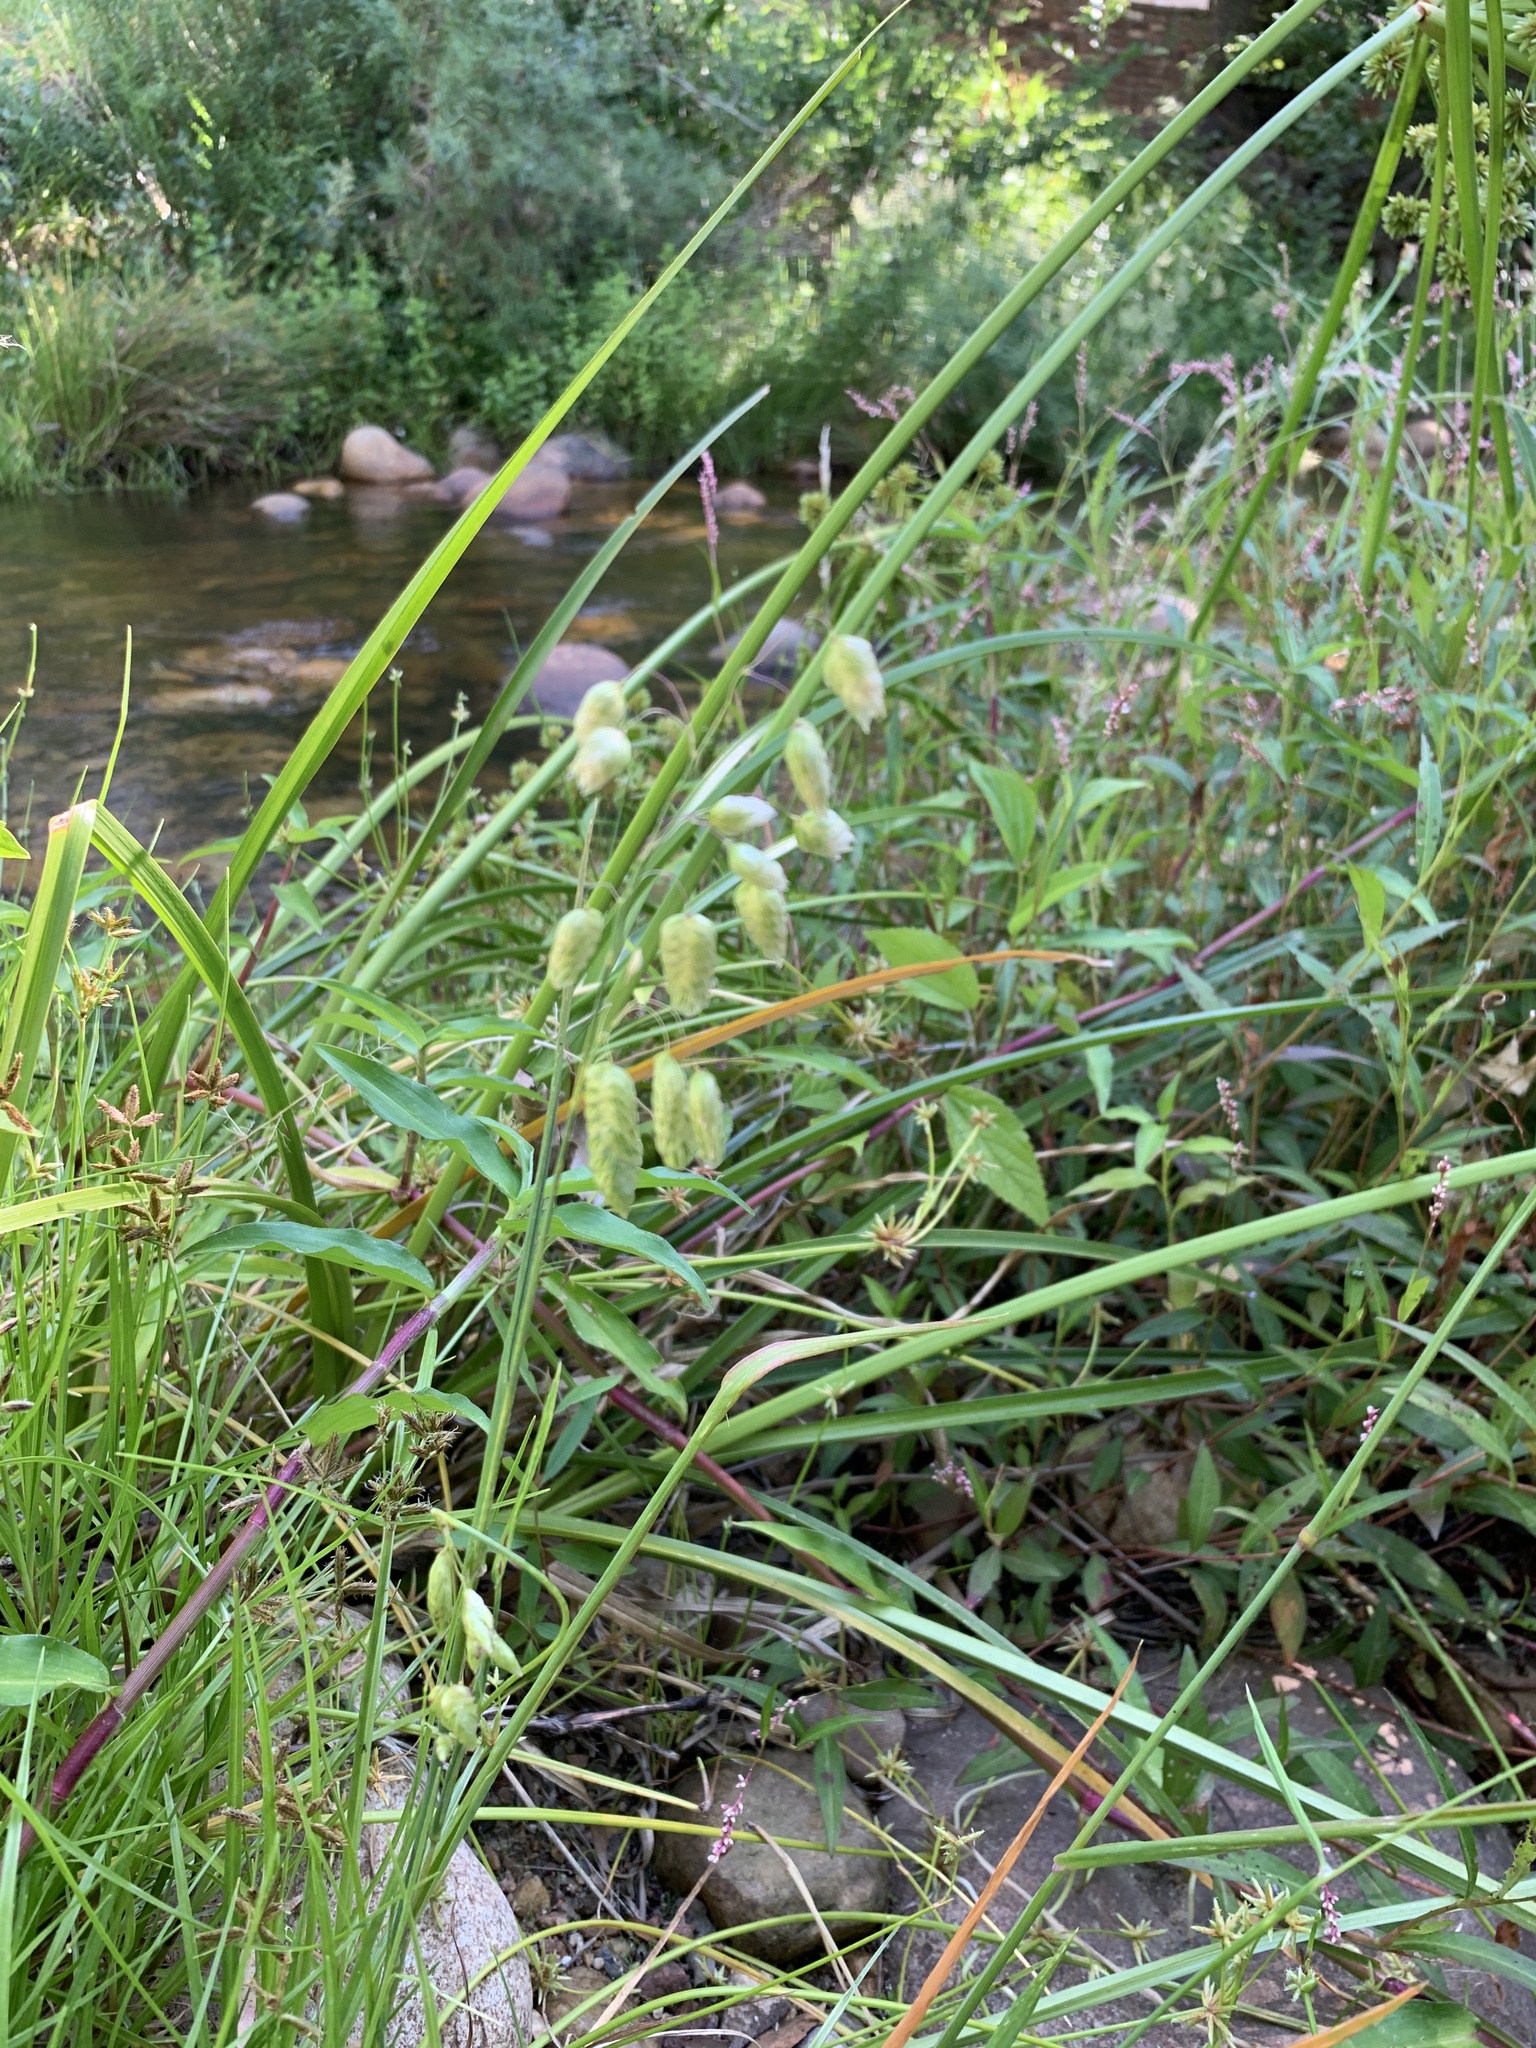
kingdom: Plantae
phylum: Tracheophyta
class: Liliopsida
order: Poales
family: Poaceae
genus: Briza
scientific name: Briza maxima
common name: Big quakinggrass
